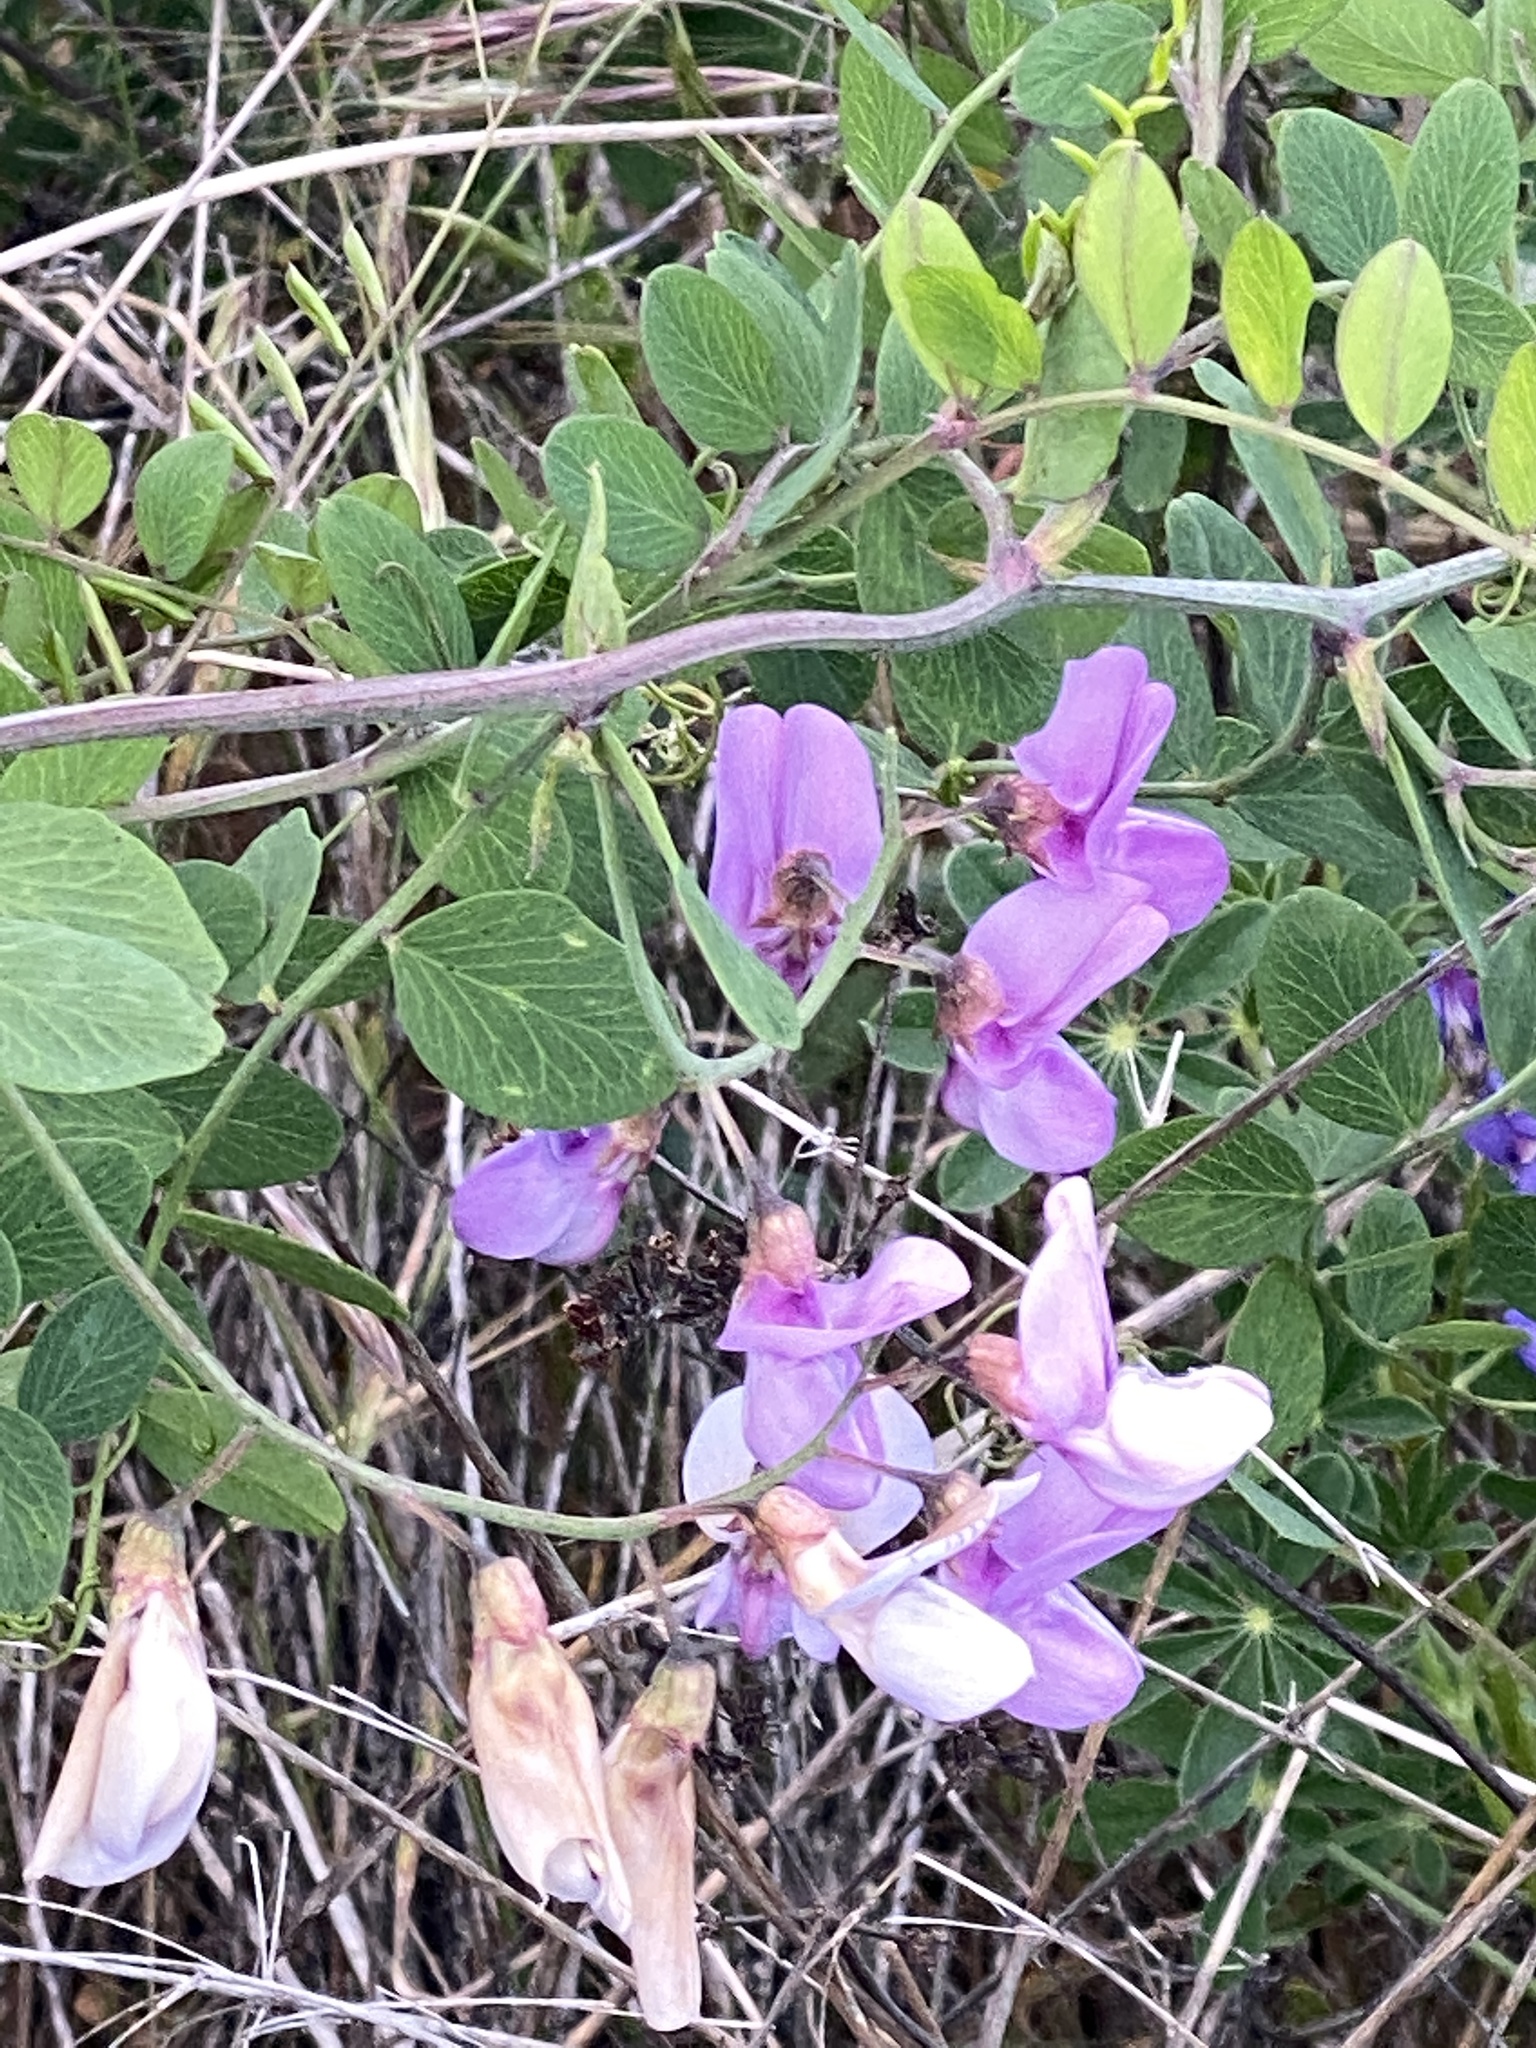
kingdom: Plantae
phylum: Tracheophyta
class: Magnoliopsida
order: Fabales
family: Fabaceae
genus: Lathyrus
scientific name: Lathyrus vestitus
